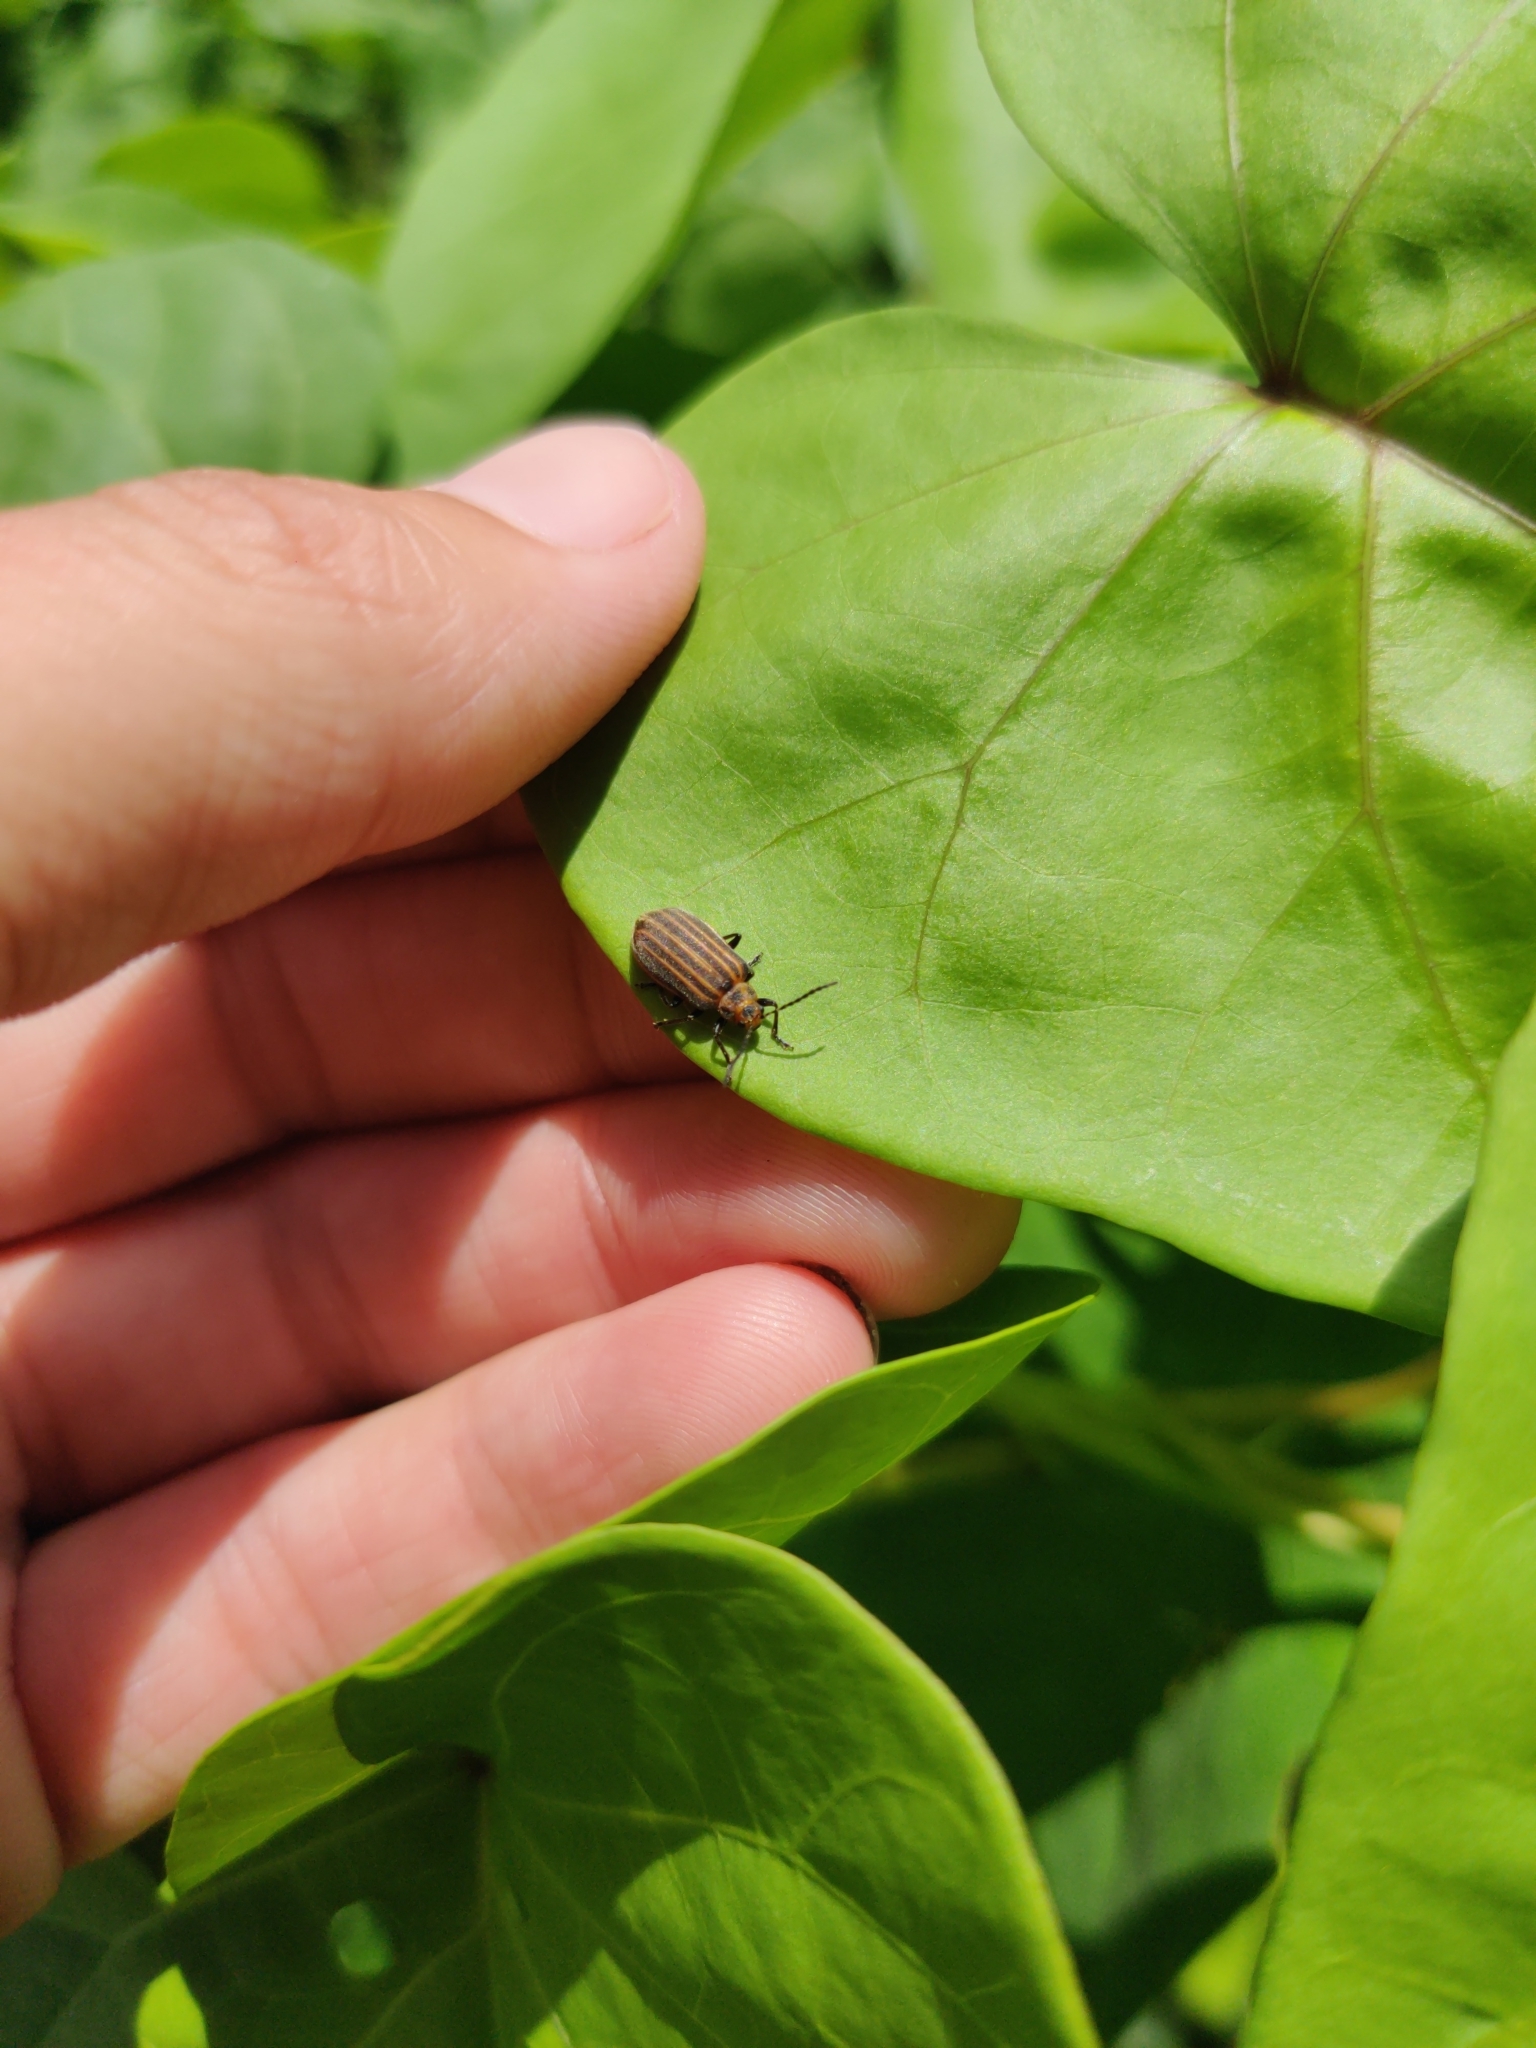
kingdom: Animalia
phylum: Arthropoda
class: Insecta
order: Coleoptera
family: Chrysomelidae
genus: Neolochmaea
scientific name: Neolochmaea dilatipennis
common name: Skeletonizing leaf beetle
